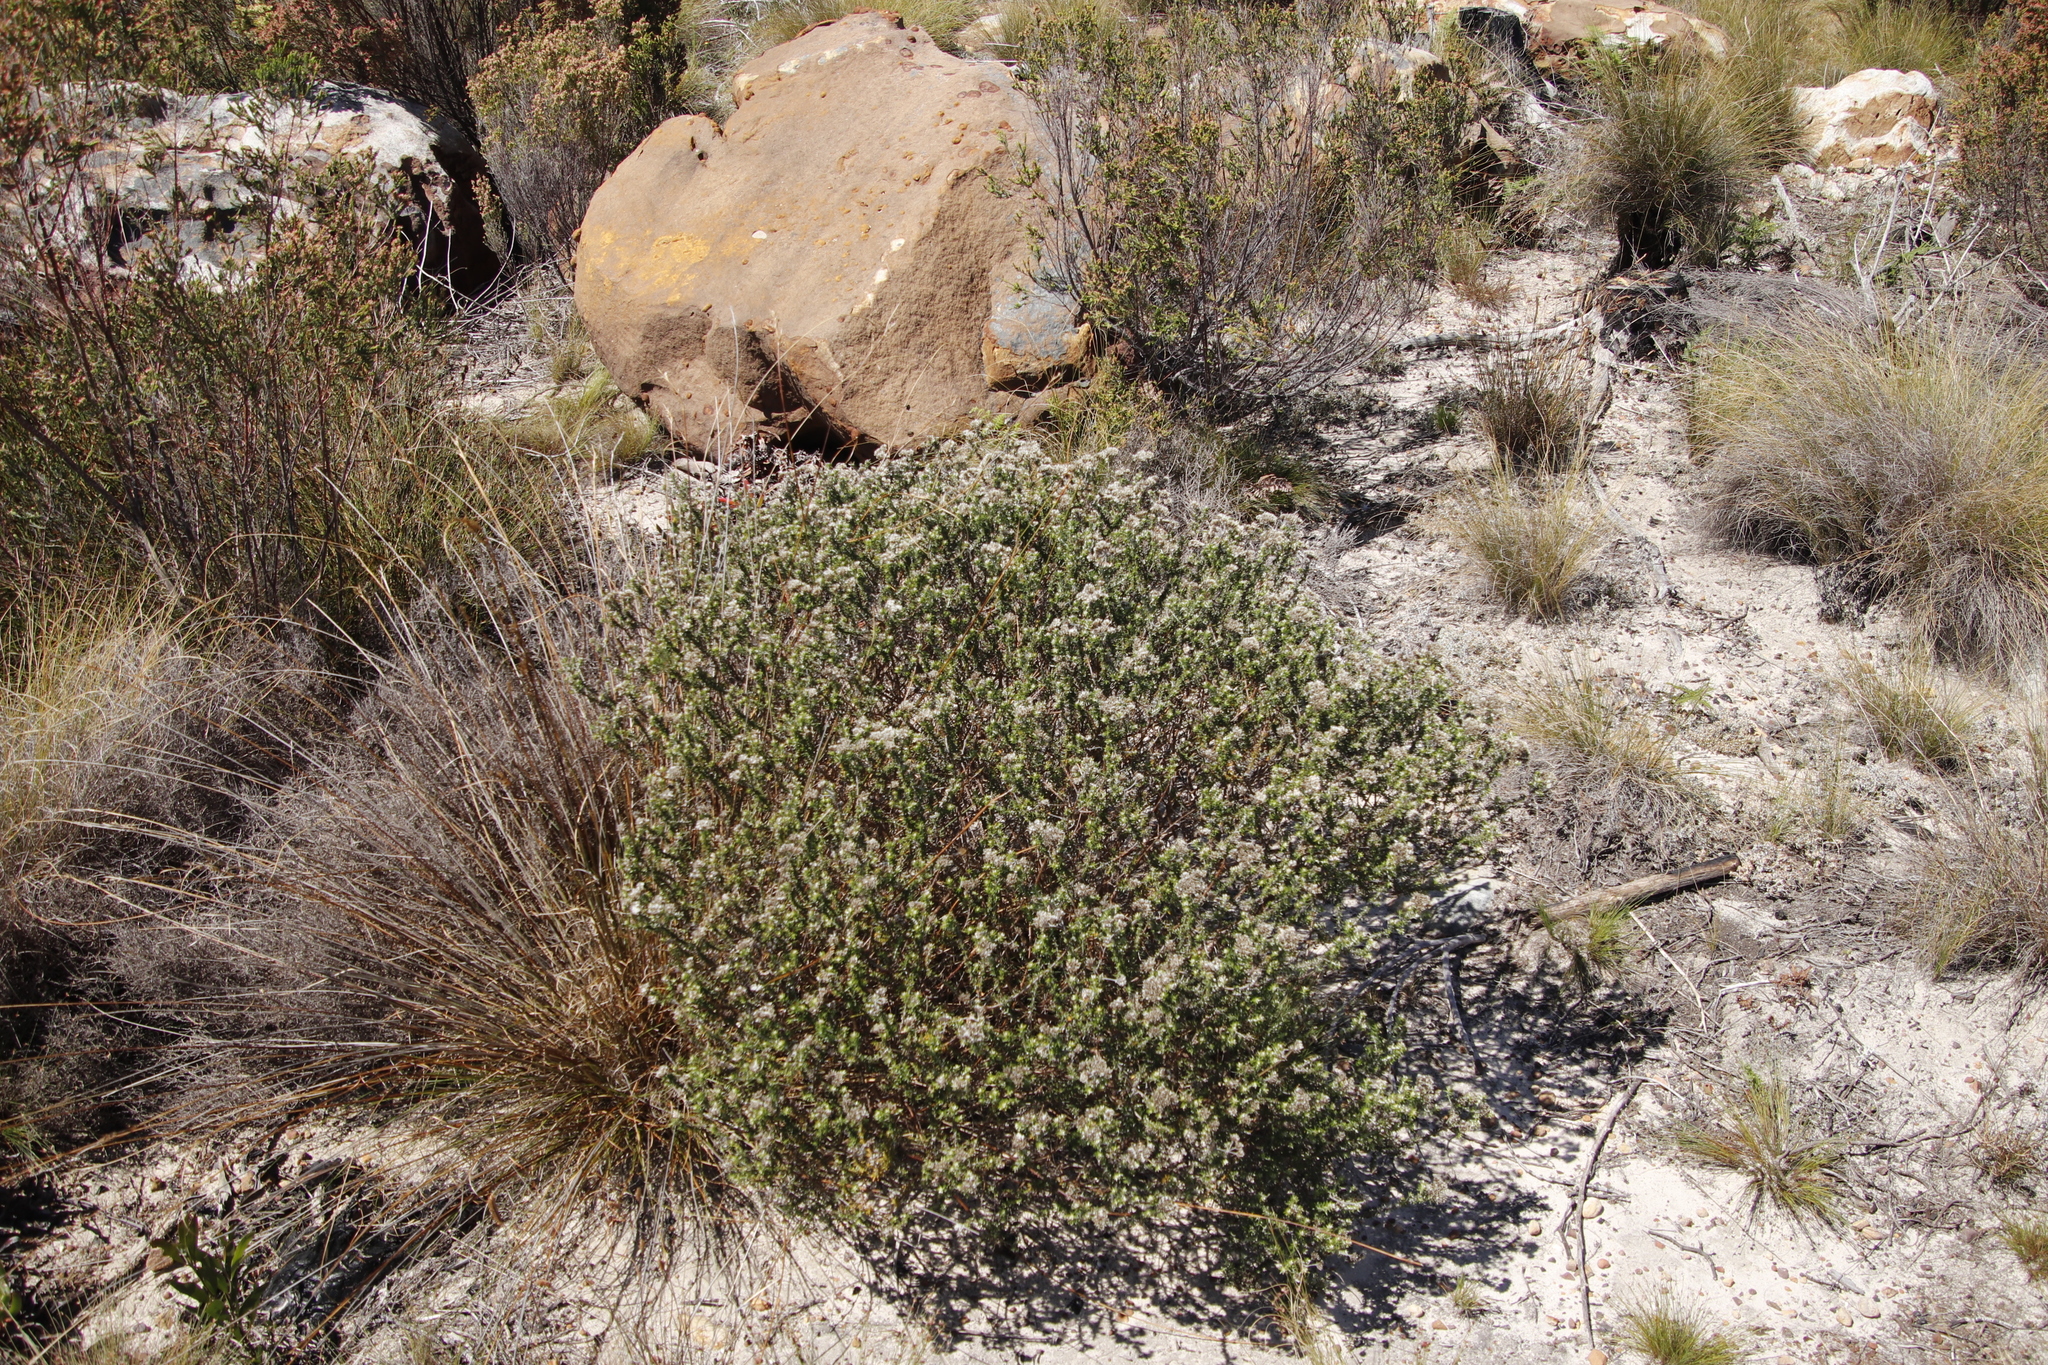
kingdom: Plantae
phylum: Tracheophyta
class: Magnoliopsida
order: Asterales
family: Asteraceae
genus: Metalasia
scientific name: Metalasia densa
